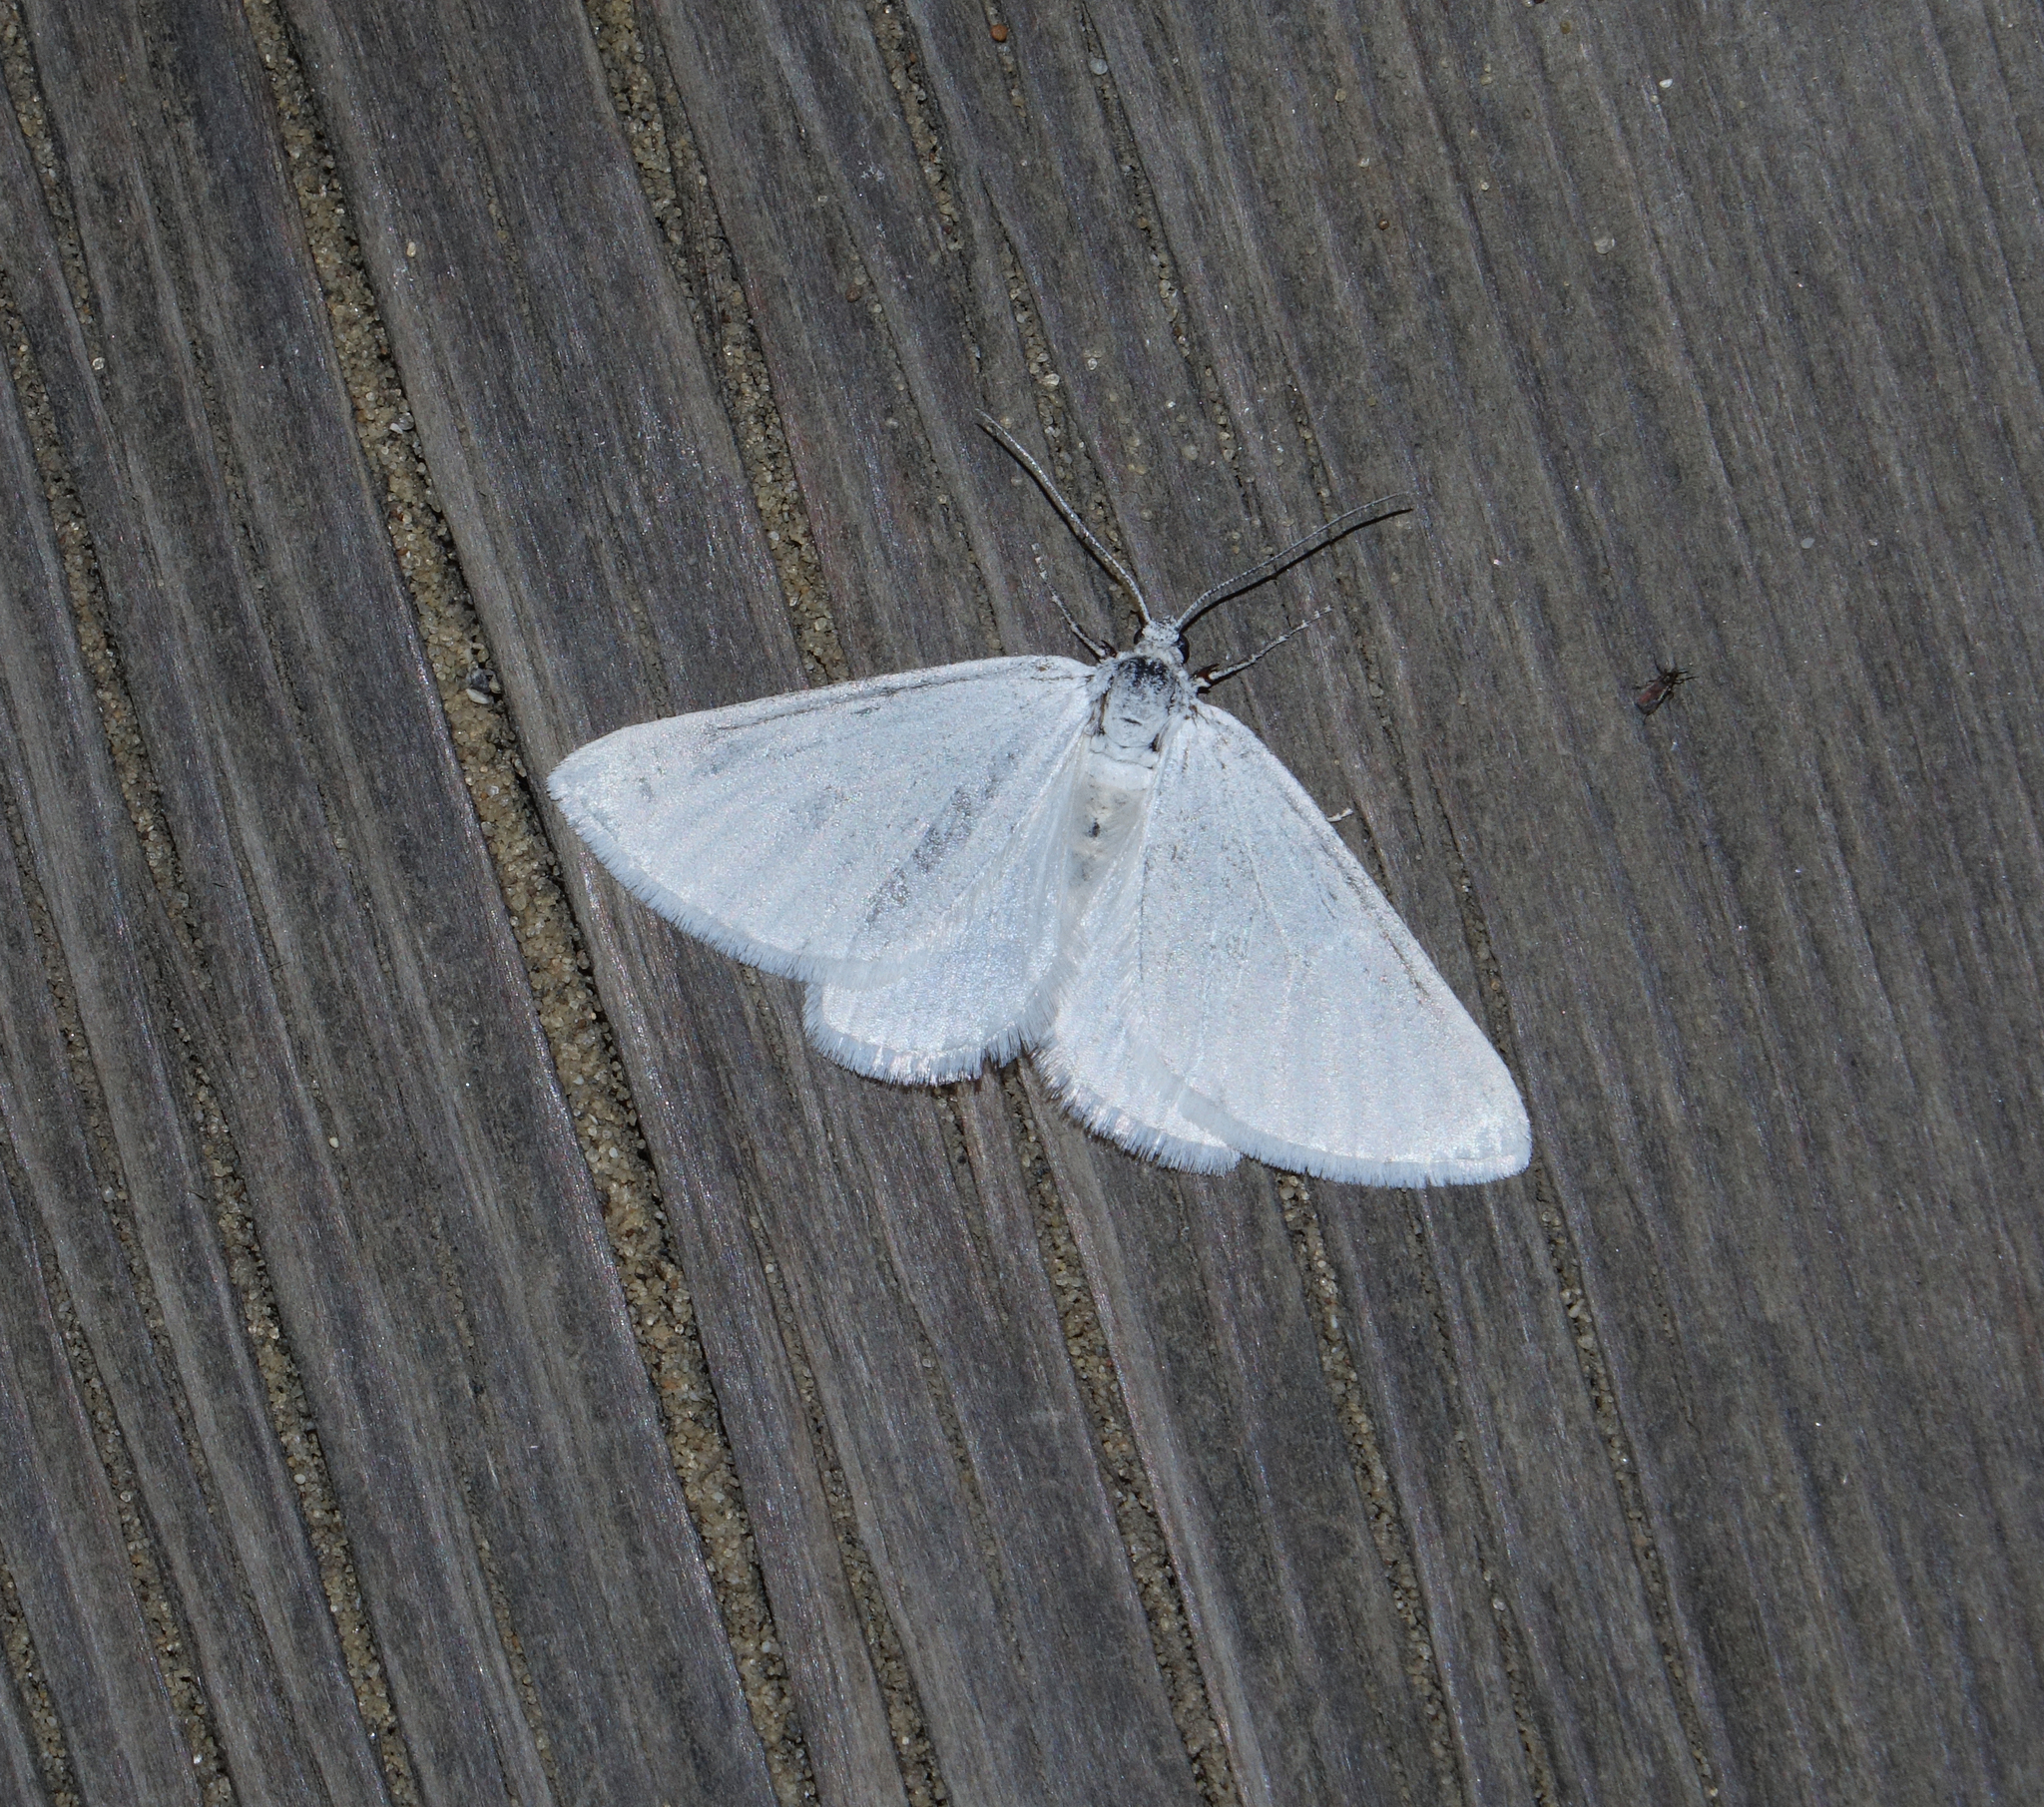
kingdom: Animalia
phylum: Arthropoda
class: Insecta
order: Lepidoptera
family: Geometridae
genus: Lithostege
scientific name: Lithostege farinata
